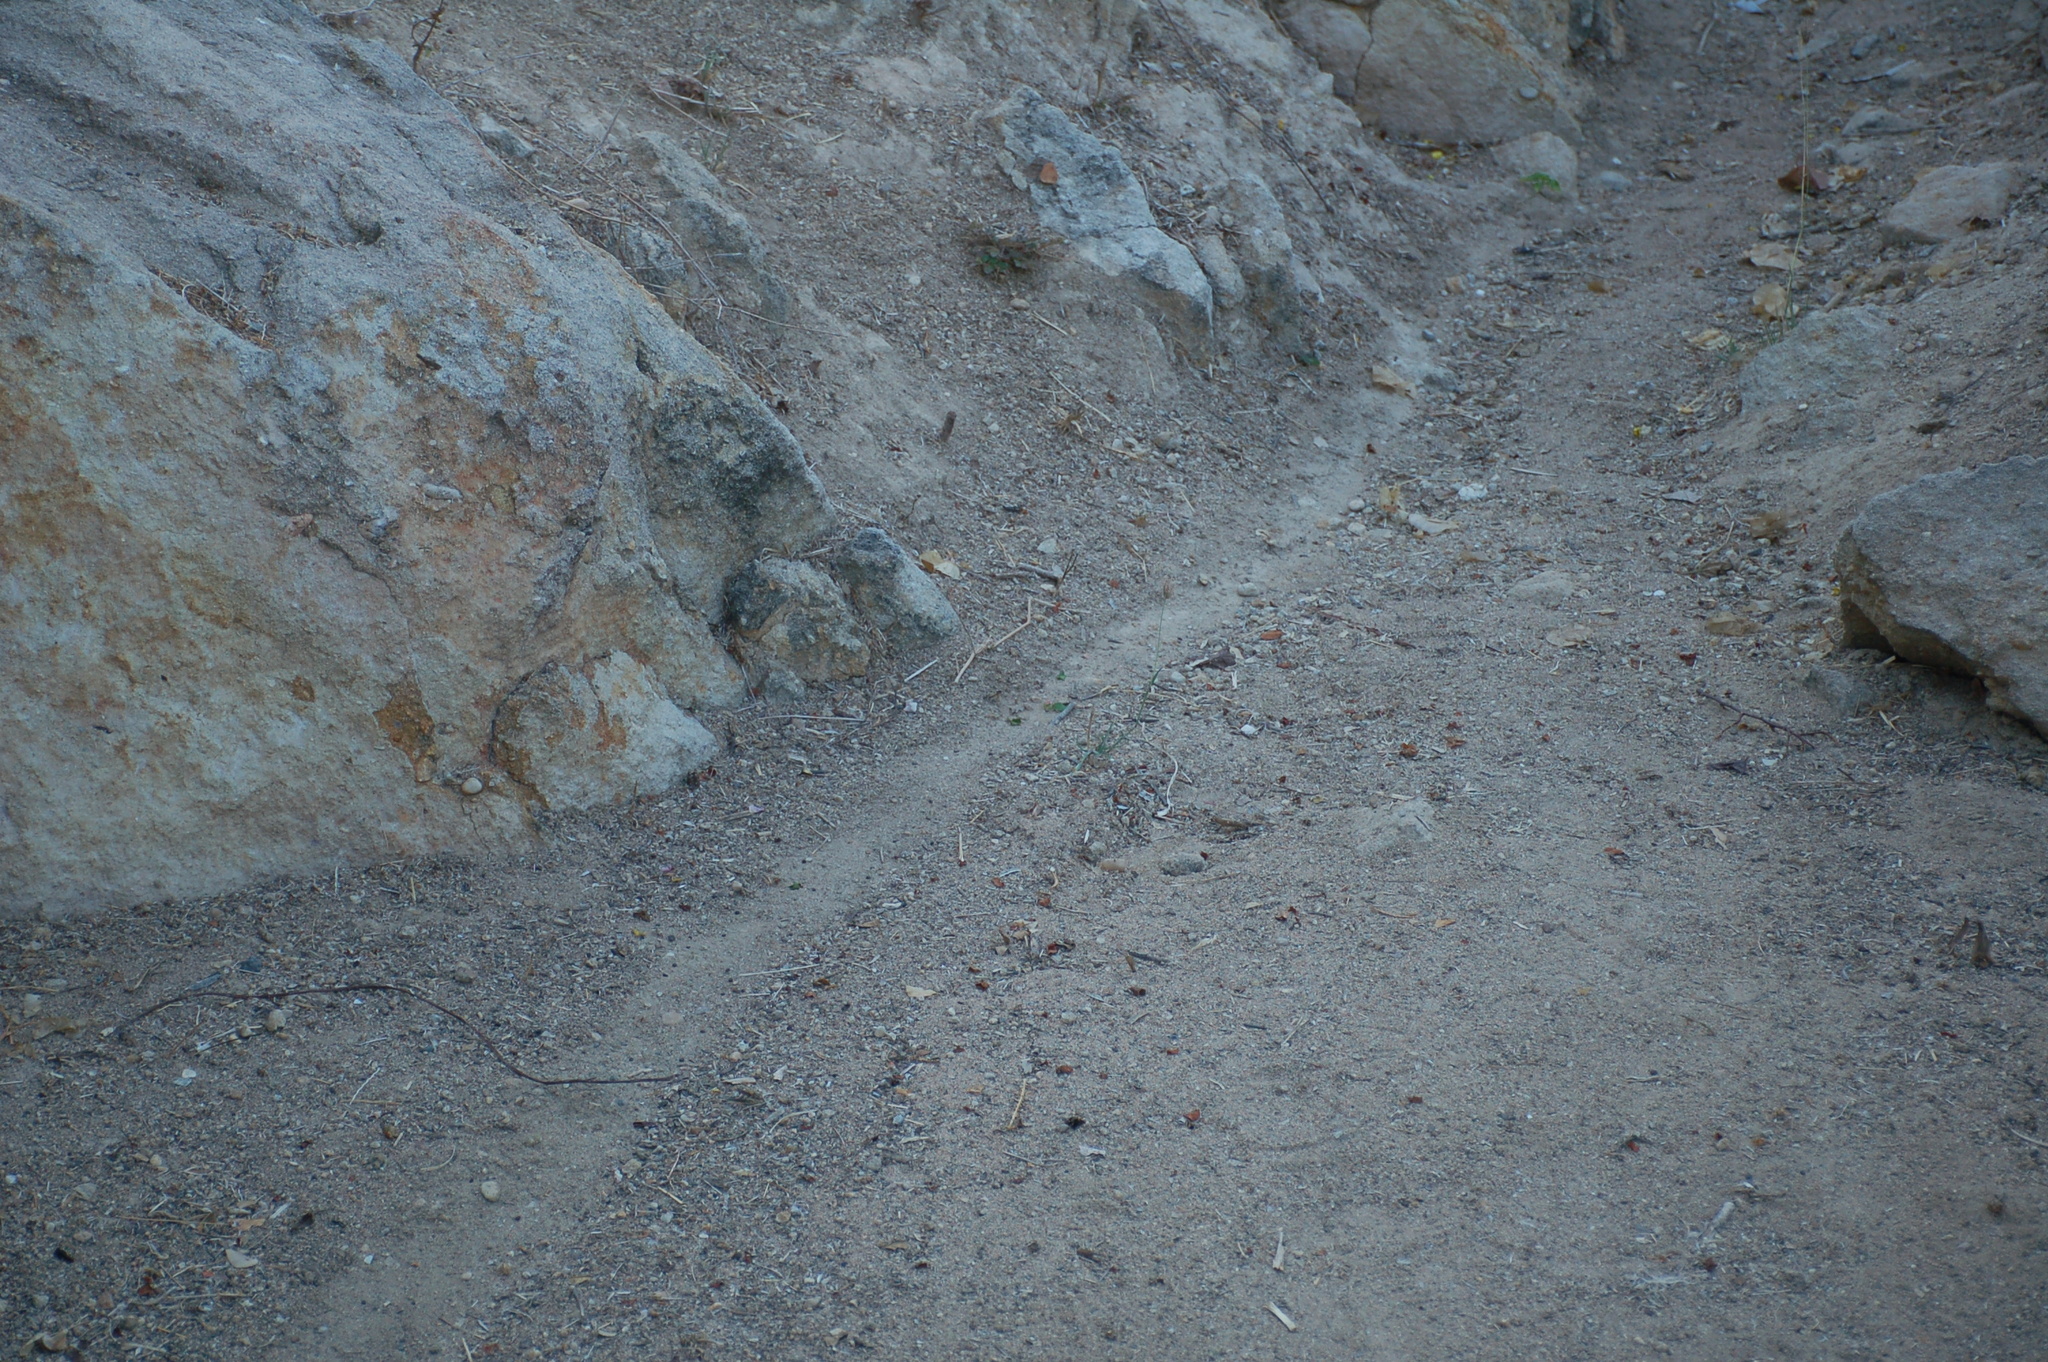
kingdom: Animalia
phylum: Arthropoda
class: Insecta
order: Hymenoptera
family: Formicidae
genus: Atta
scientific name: Atta mexicana
